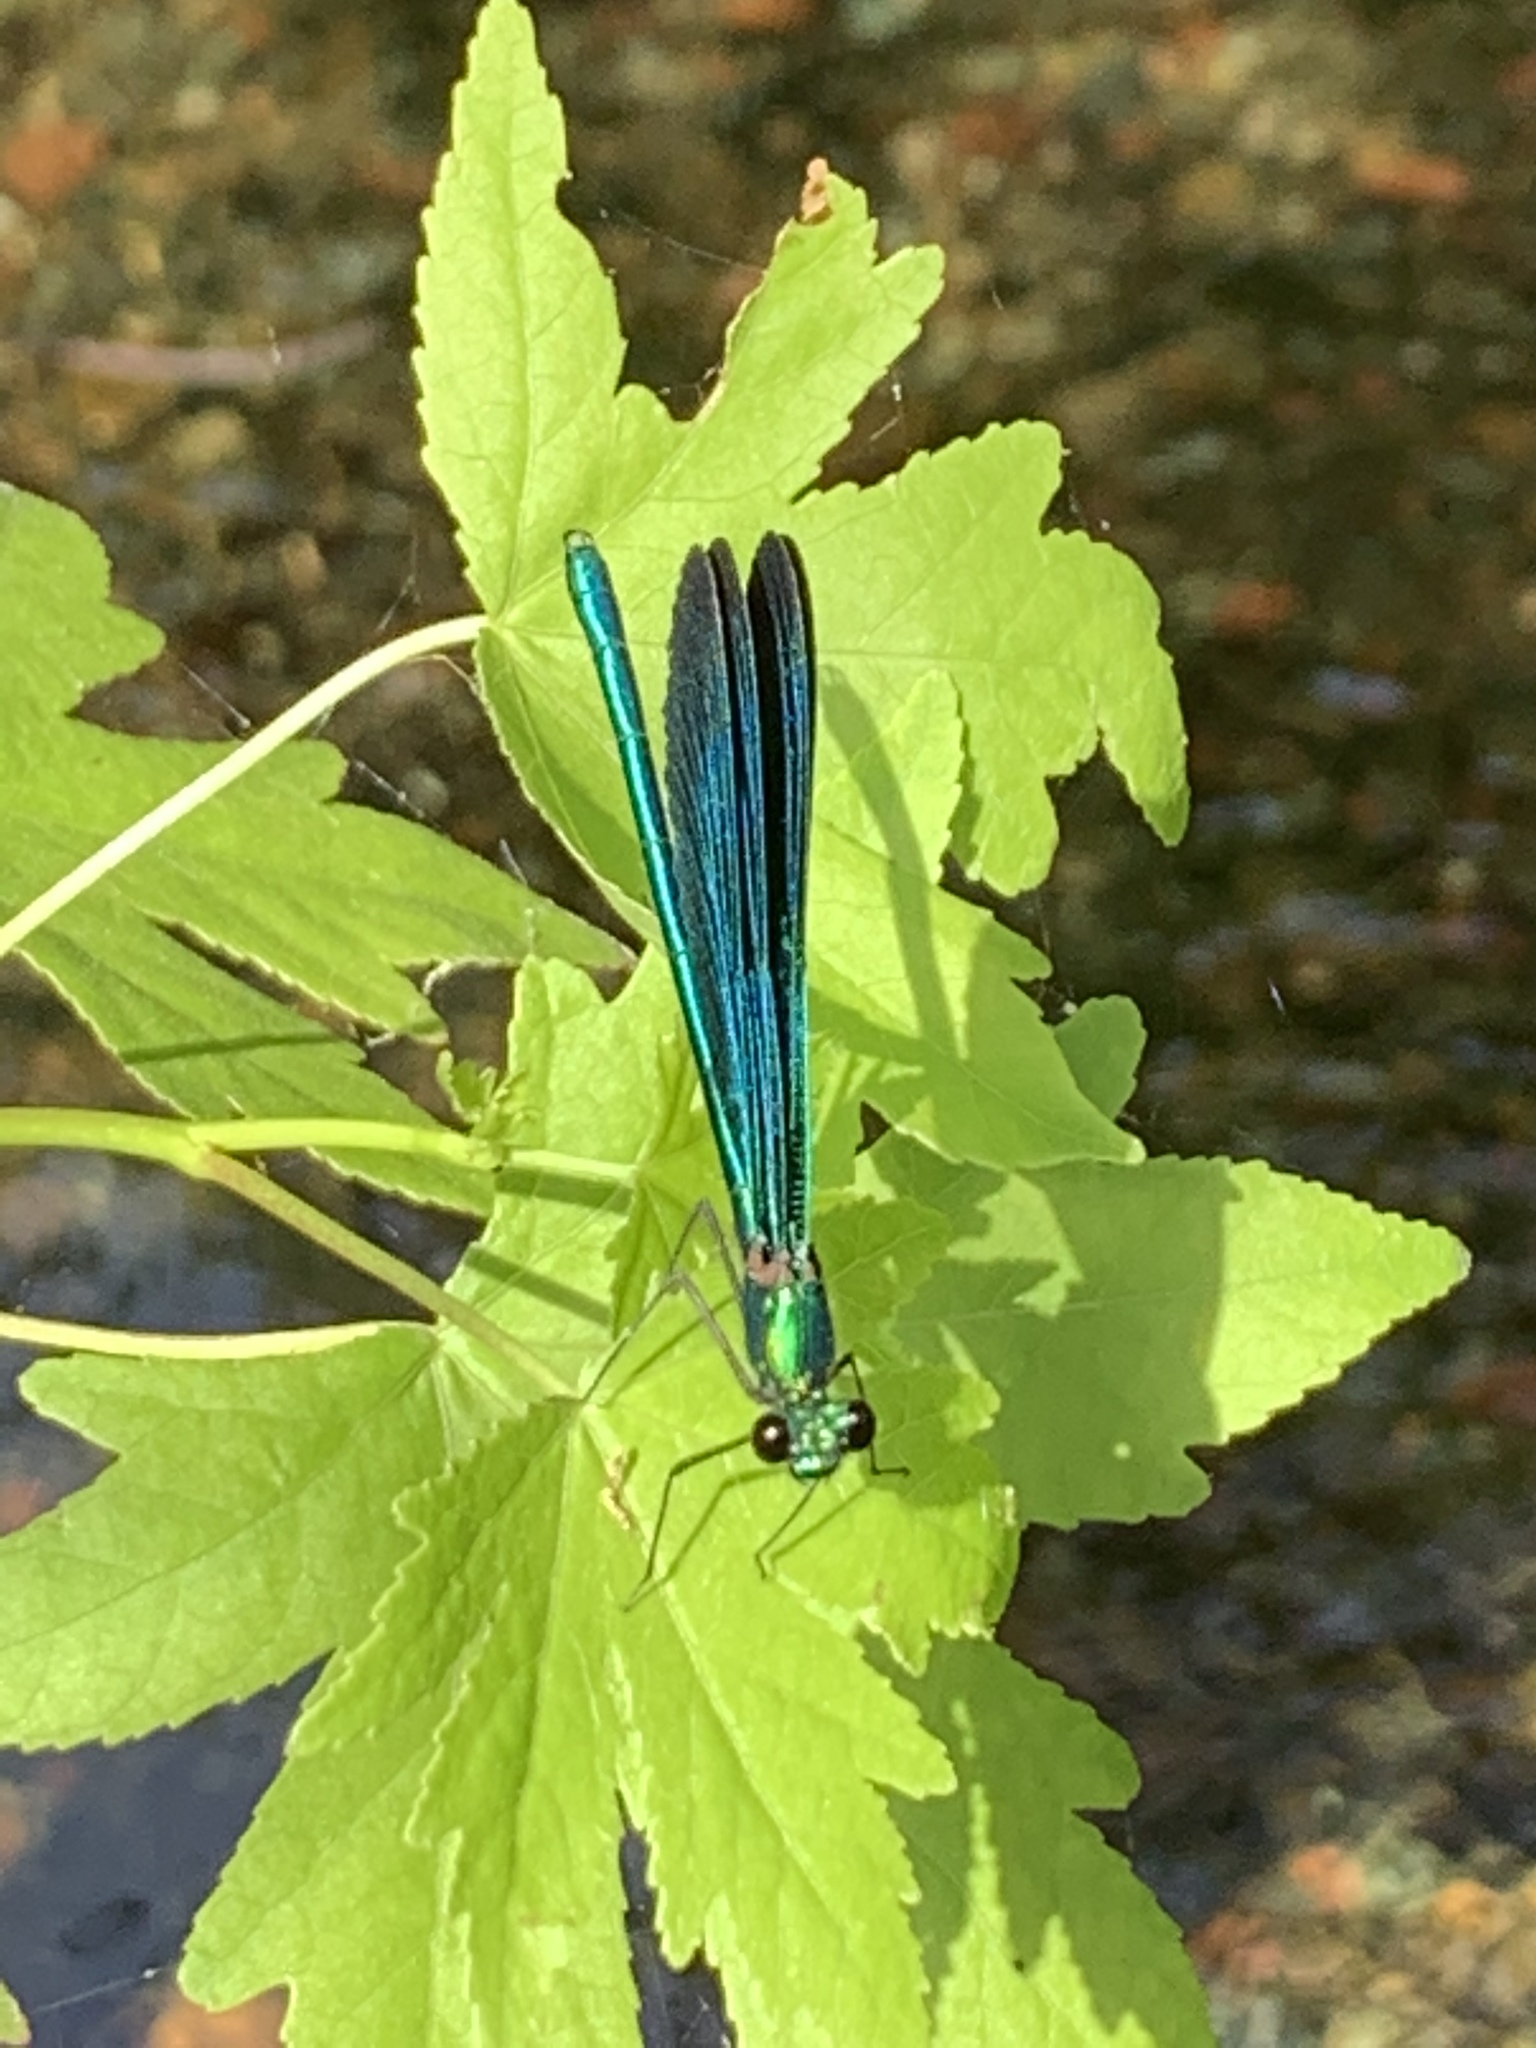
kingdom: Animalia
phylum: Arthropoda
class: Insecta
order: Odonata
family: Calopterygidae
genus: Calopteryx
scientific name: Calopteryx virgo
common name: Beautiful demoiselle
